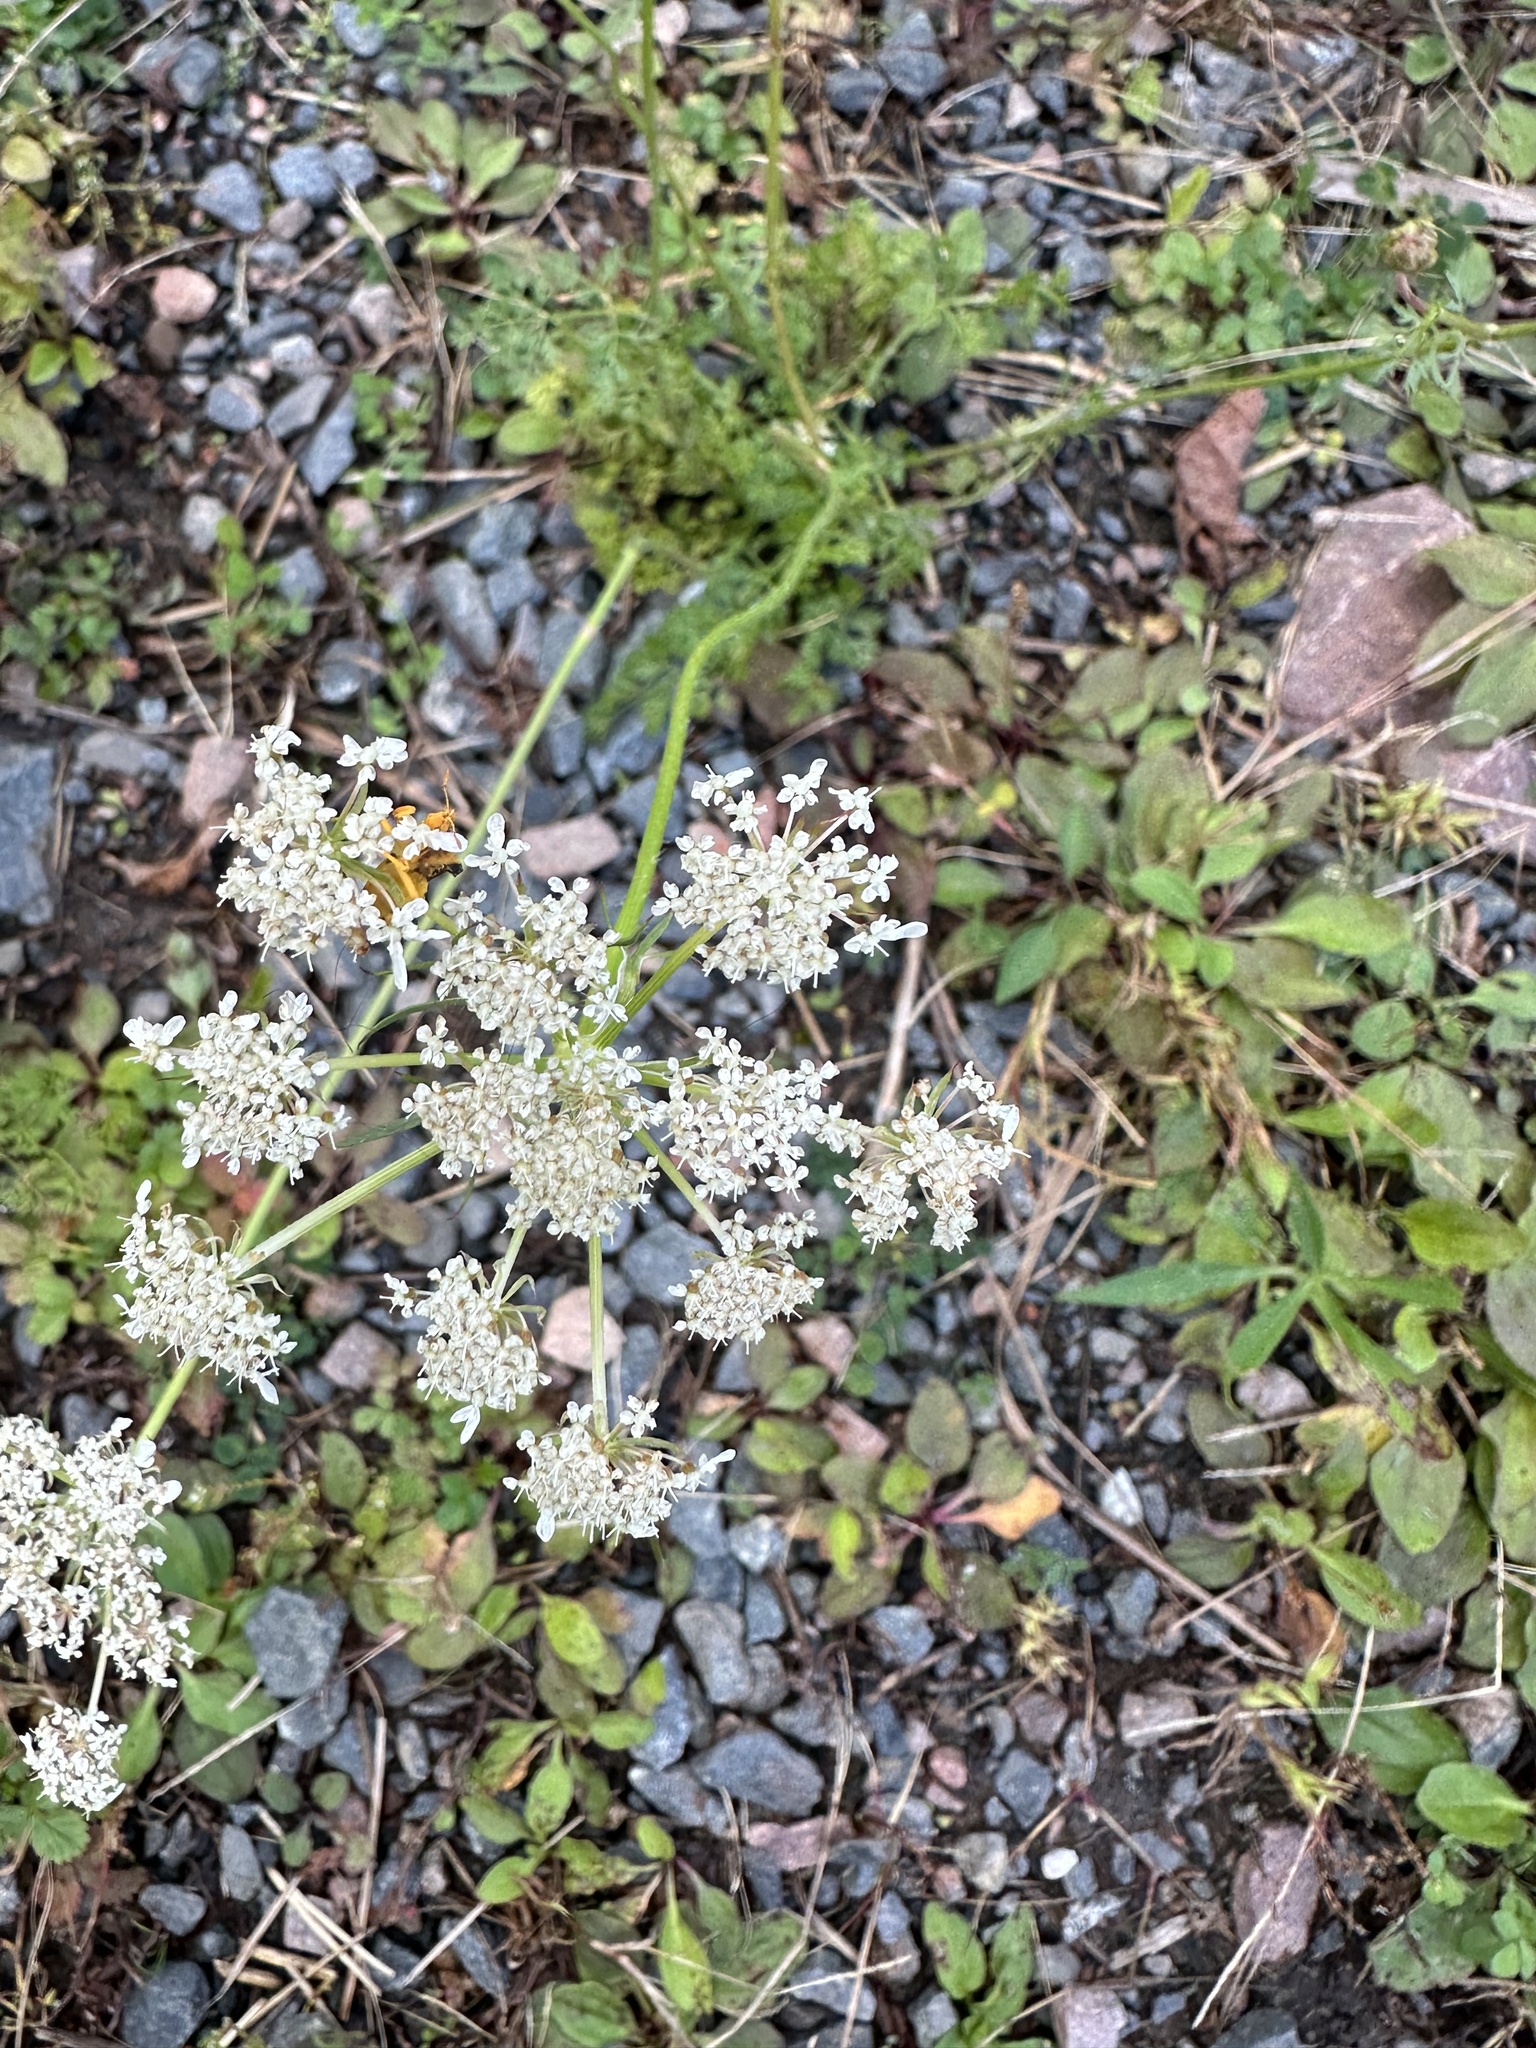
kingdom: Plantae
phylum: Tracheophyta
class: Magnoliopsida
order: Apiales
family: Apiaceae
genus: Daucus
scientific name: Daucus carota
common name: Wild carrot
